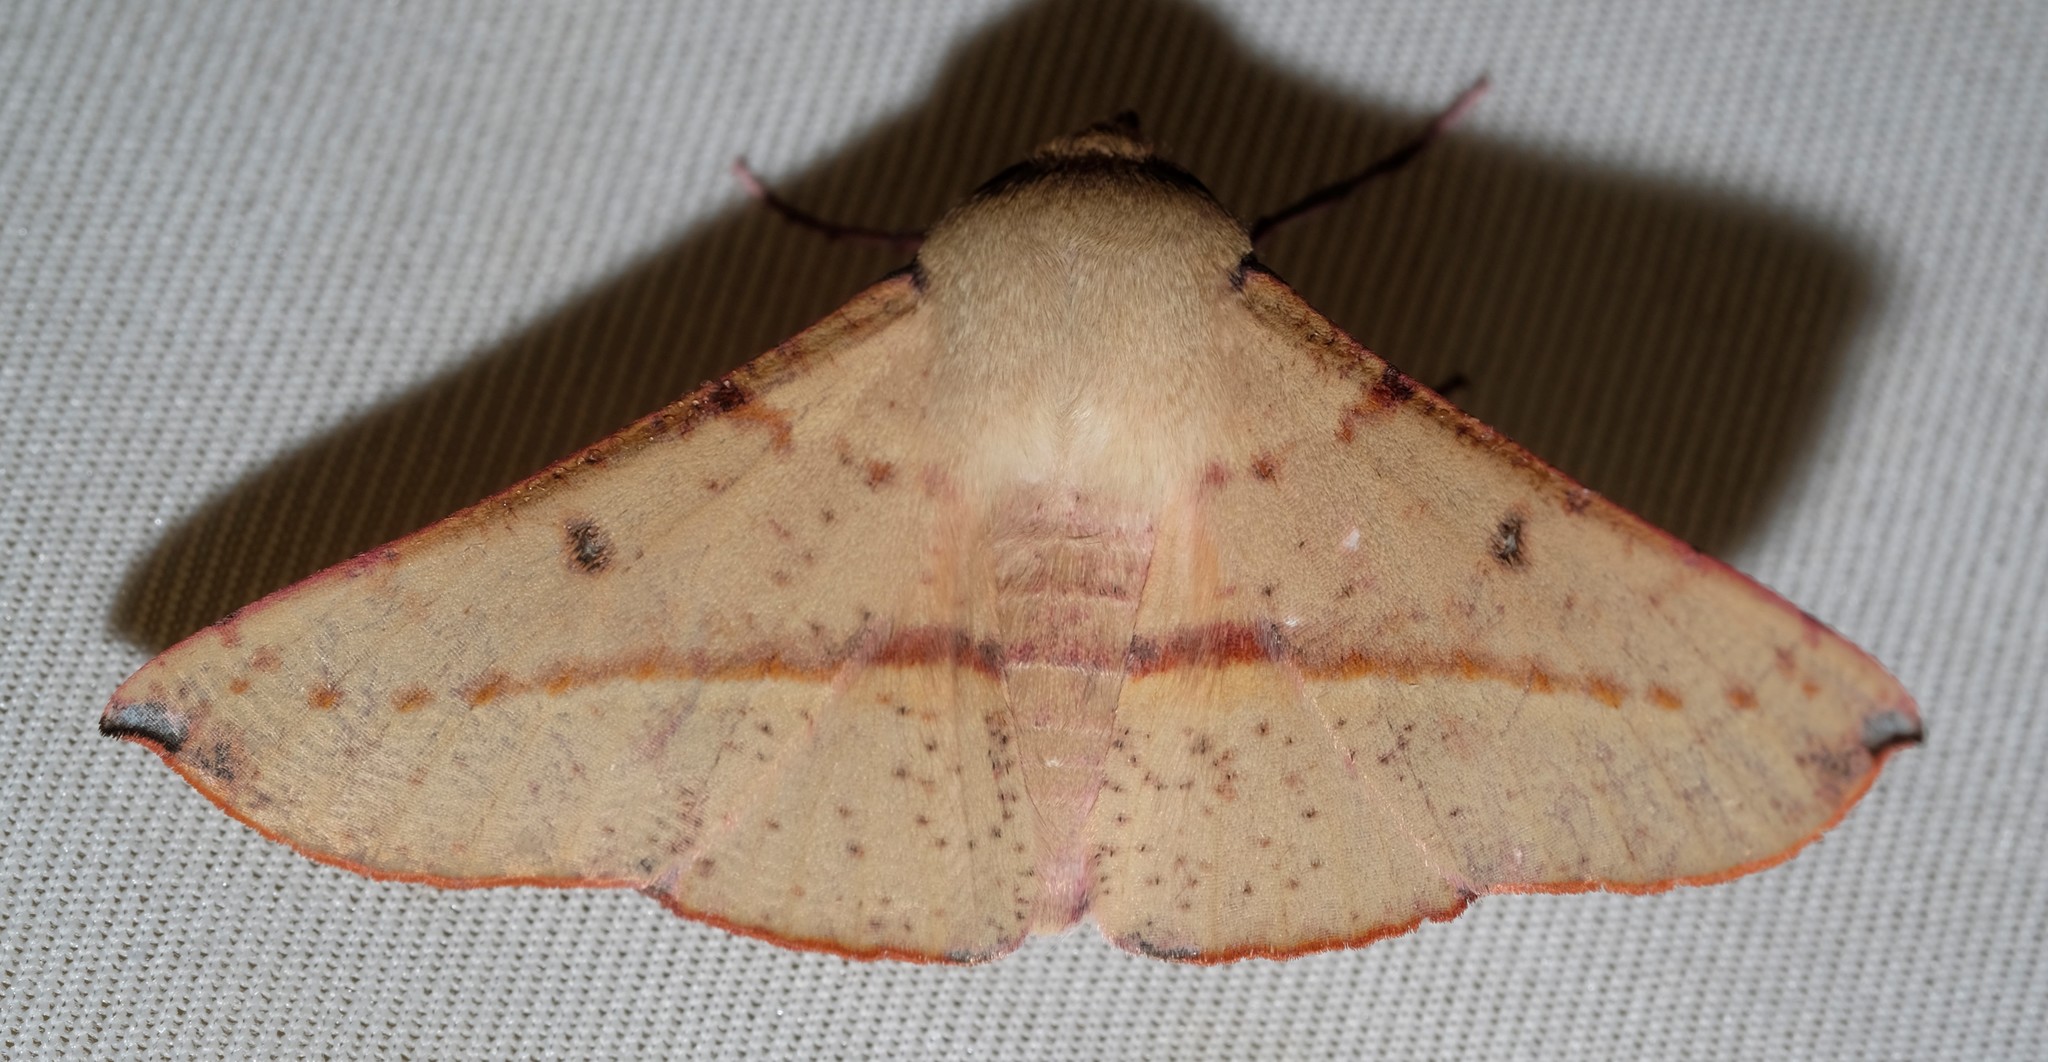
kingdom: Animalia
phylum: Arthropoda
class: Insecta
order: Lepidoptera
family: Geometridae
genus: Oenochroma
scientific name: Oenochroma vinaria
